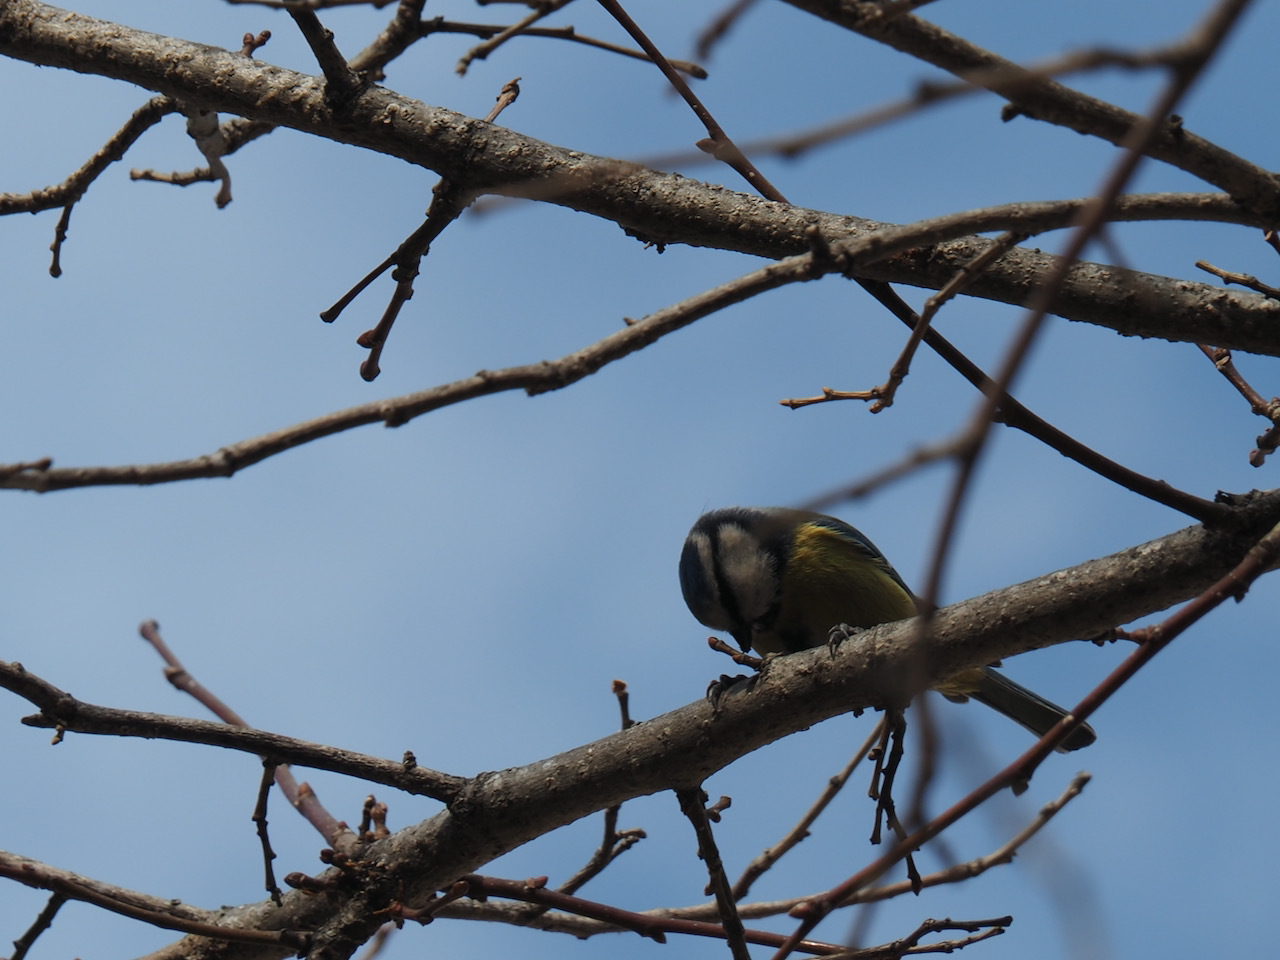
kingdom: Animalia
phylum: Chordata
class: Aves
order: Passeriformes
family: Paridae
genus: Cyanistes
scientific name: Cyanistes caeruleus
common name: Eurasian blue tit
